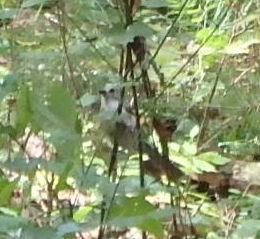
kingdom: Animalia
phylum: Chordata
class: Aves
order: Passeriformes
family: Paridae
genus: Baeolophus
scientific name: Baeolophus bicolor
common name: Tufted titmouse
